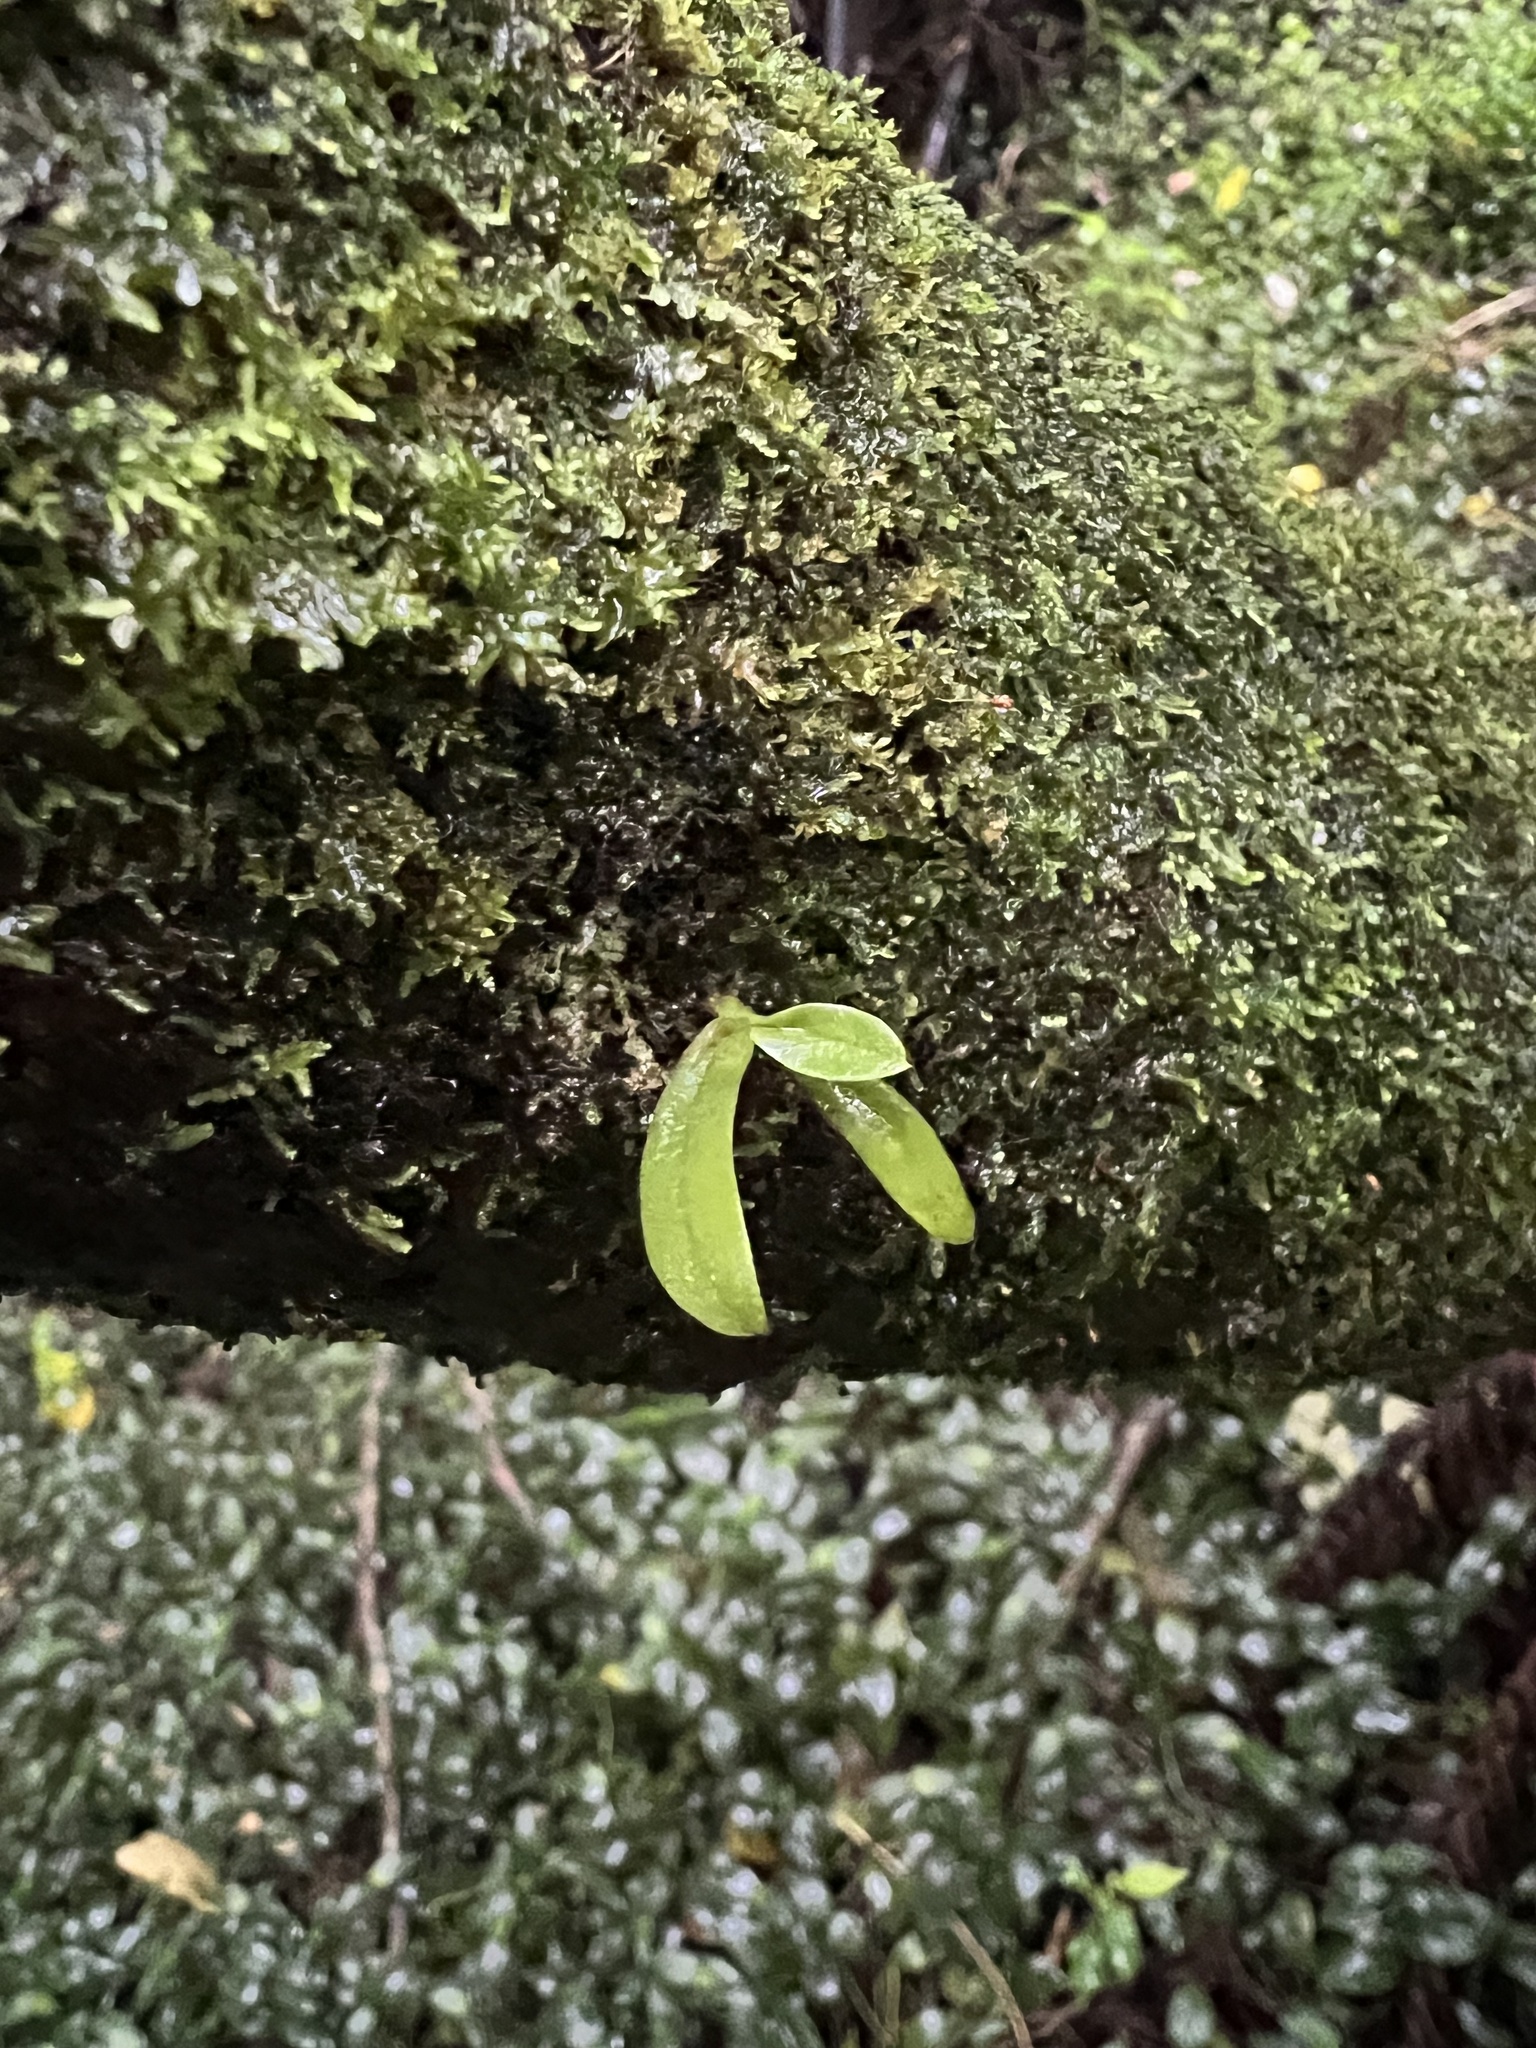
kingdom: Plantae
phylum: Tracheophyta
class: Liliopsida
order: Asparagales
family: Orchidaceae
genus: Drymoanthus
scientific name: Drymoanthus adversus
